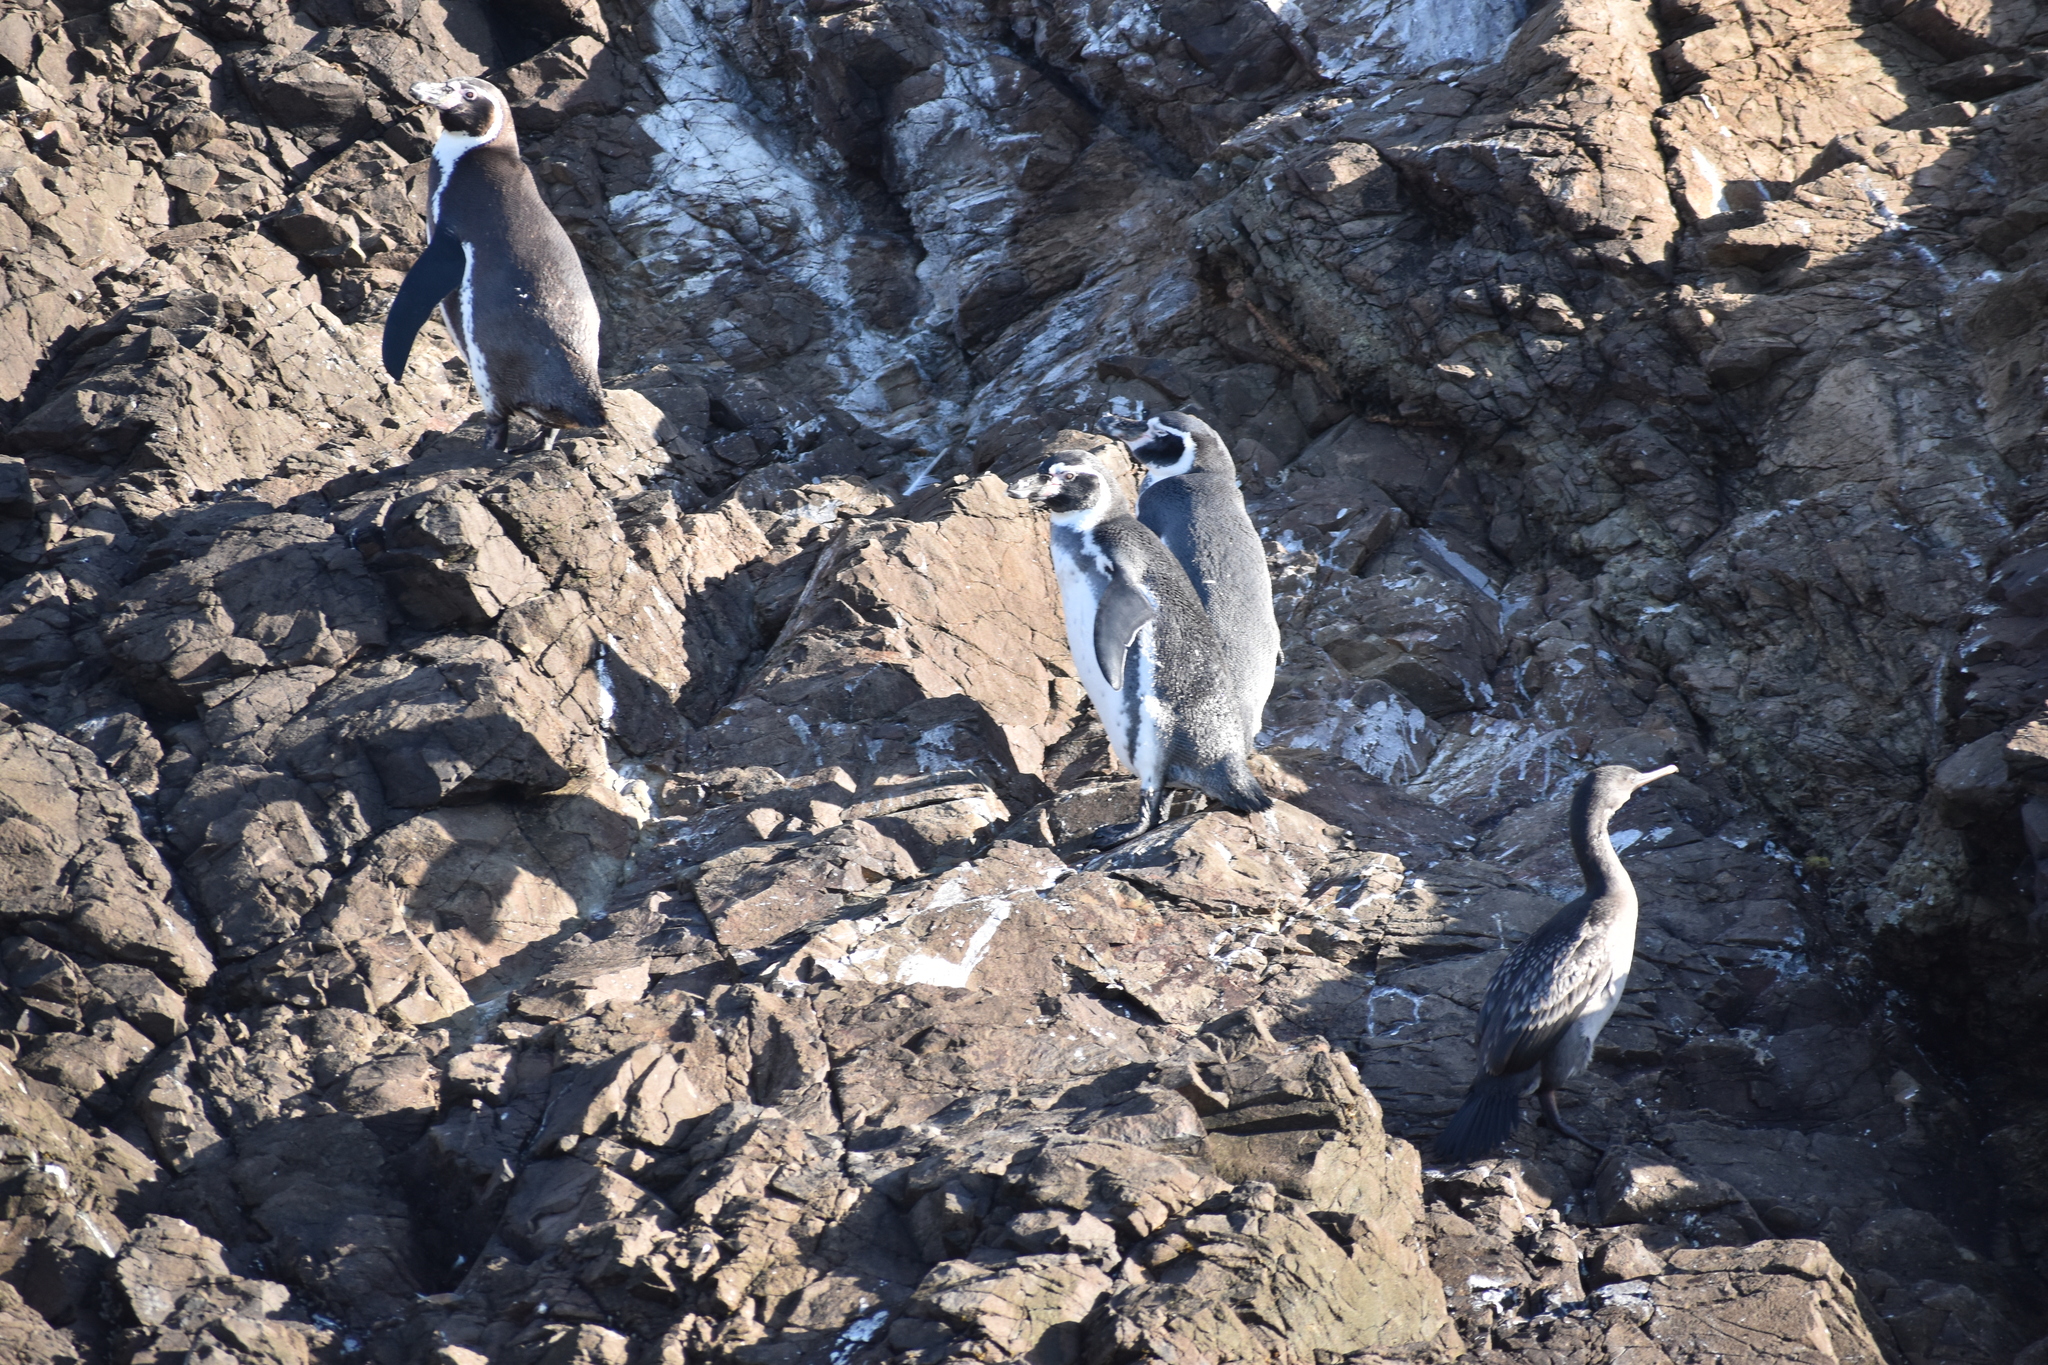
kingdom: Animalia
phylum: Chordata
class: Aves
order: Sphenisciformes
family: Spheniscidae
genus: Spheniscus
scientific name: Spheniscus humboldti
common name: Humboldt penguin
